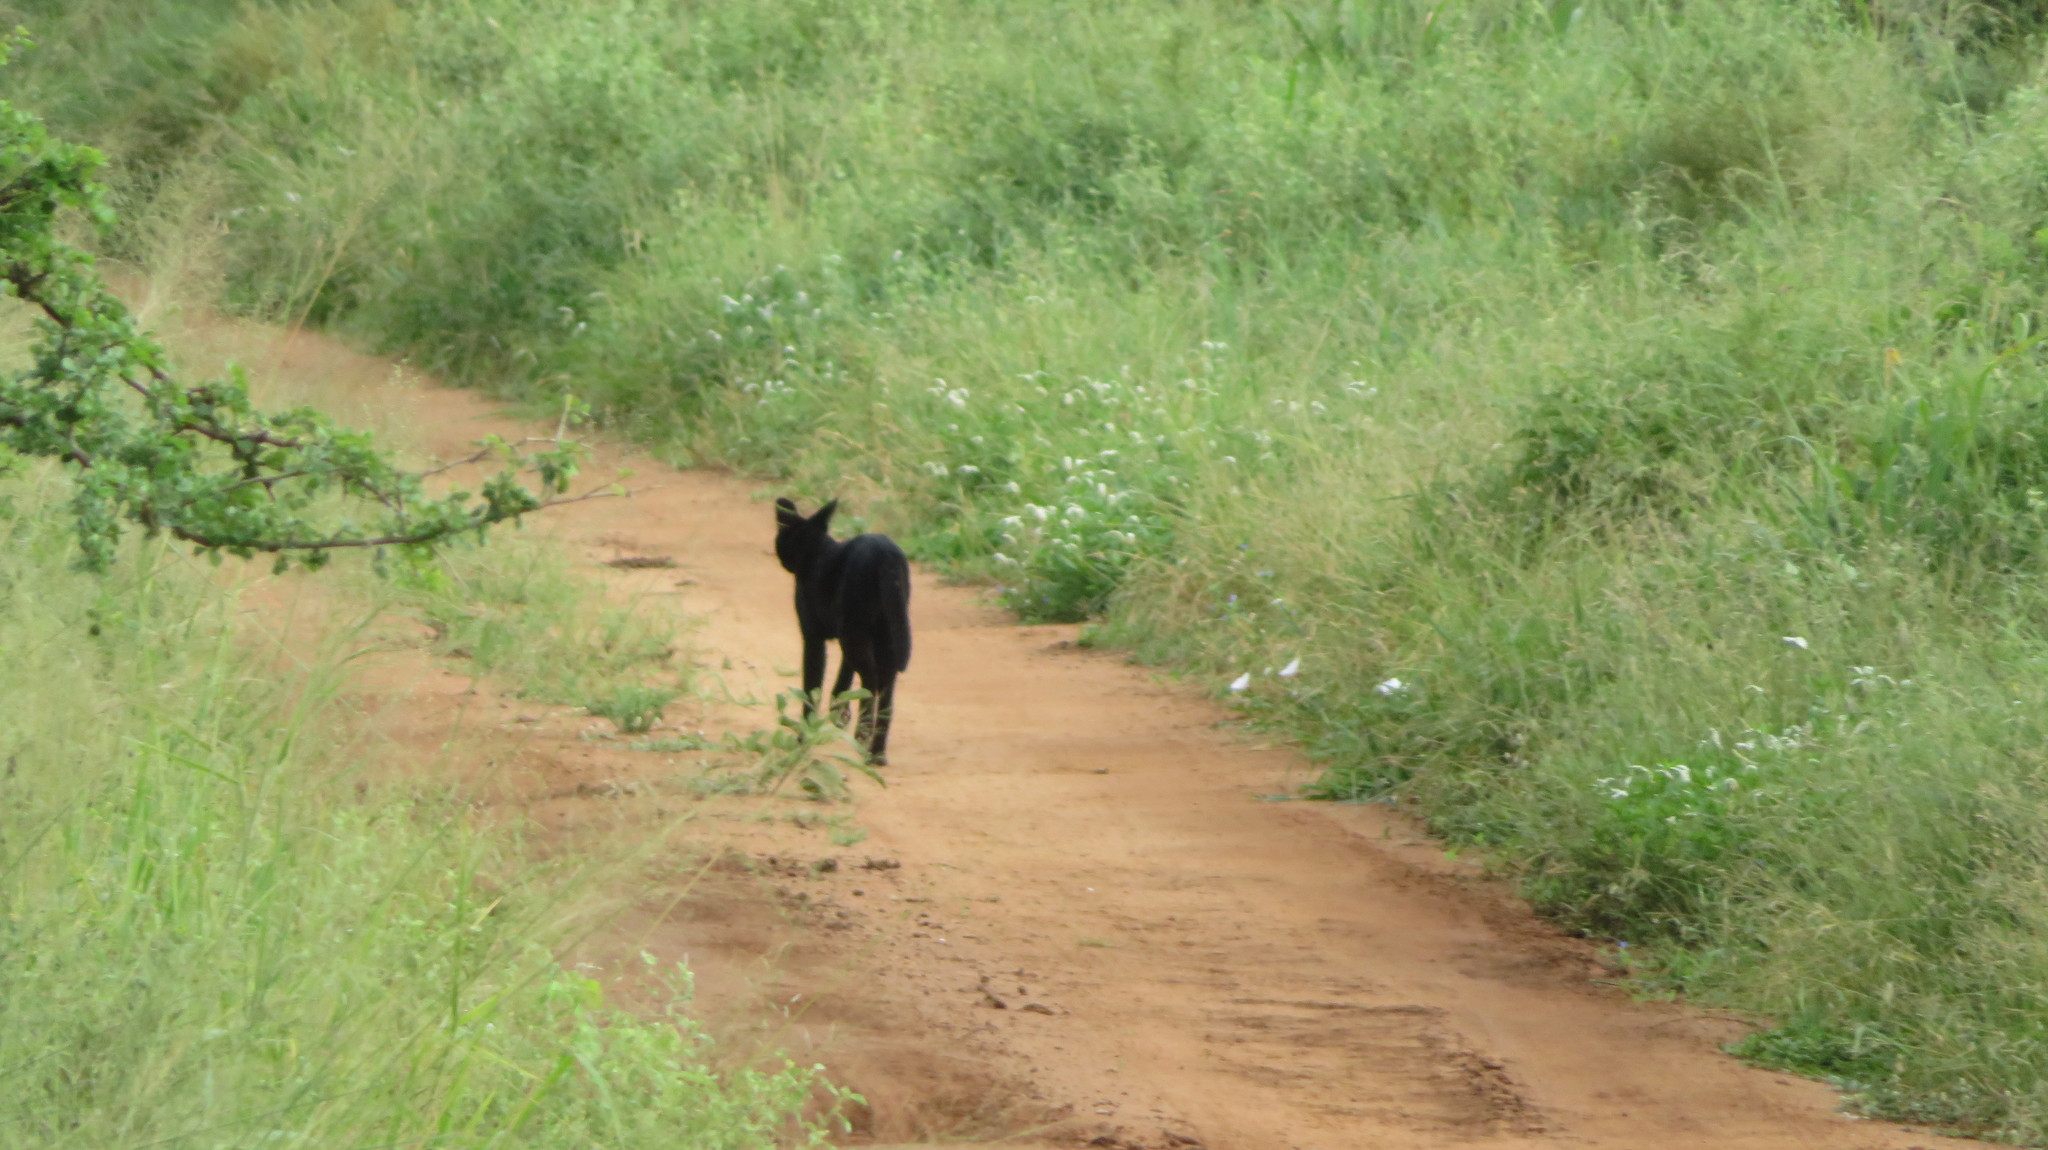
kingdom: Animalia
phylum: Chordata
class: Mammalia
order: Carnivora
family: Felidae
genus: Leptailurus
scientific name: Leptailurus serval
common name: Serval
